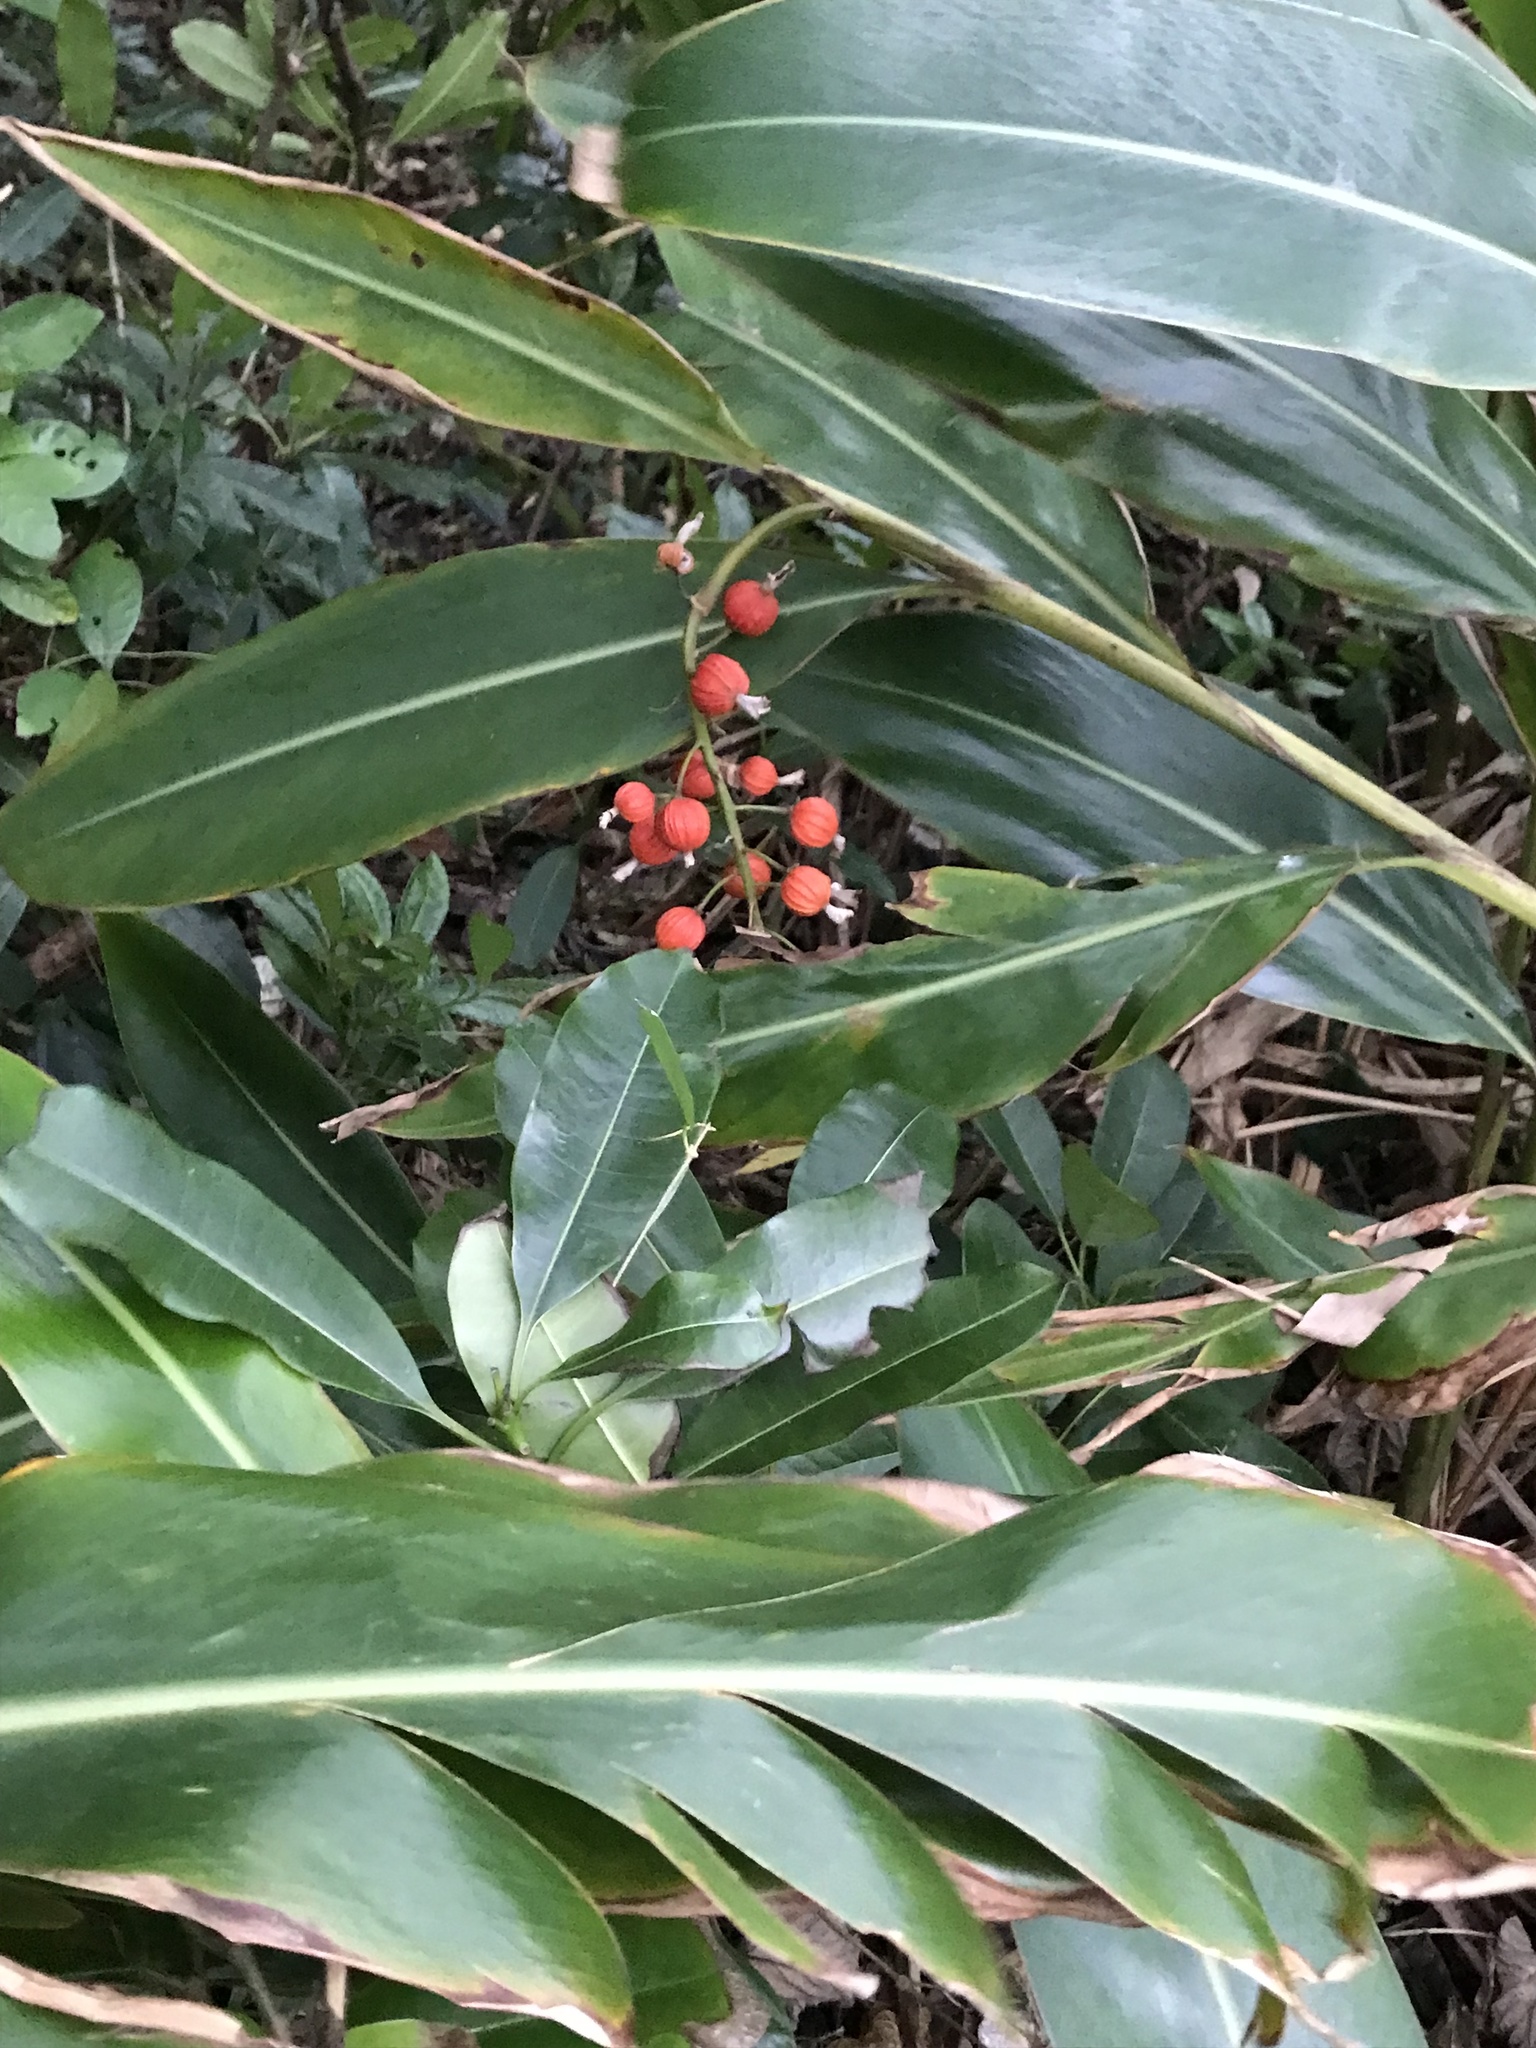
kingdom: Plantae
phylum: Tracheophyta
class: Liliopsida
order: Zingiberales
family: Zingiberaceae
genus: Alpinia
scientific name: Alpinia zerumbet
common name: Shellplant
